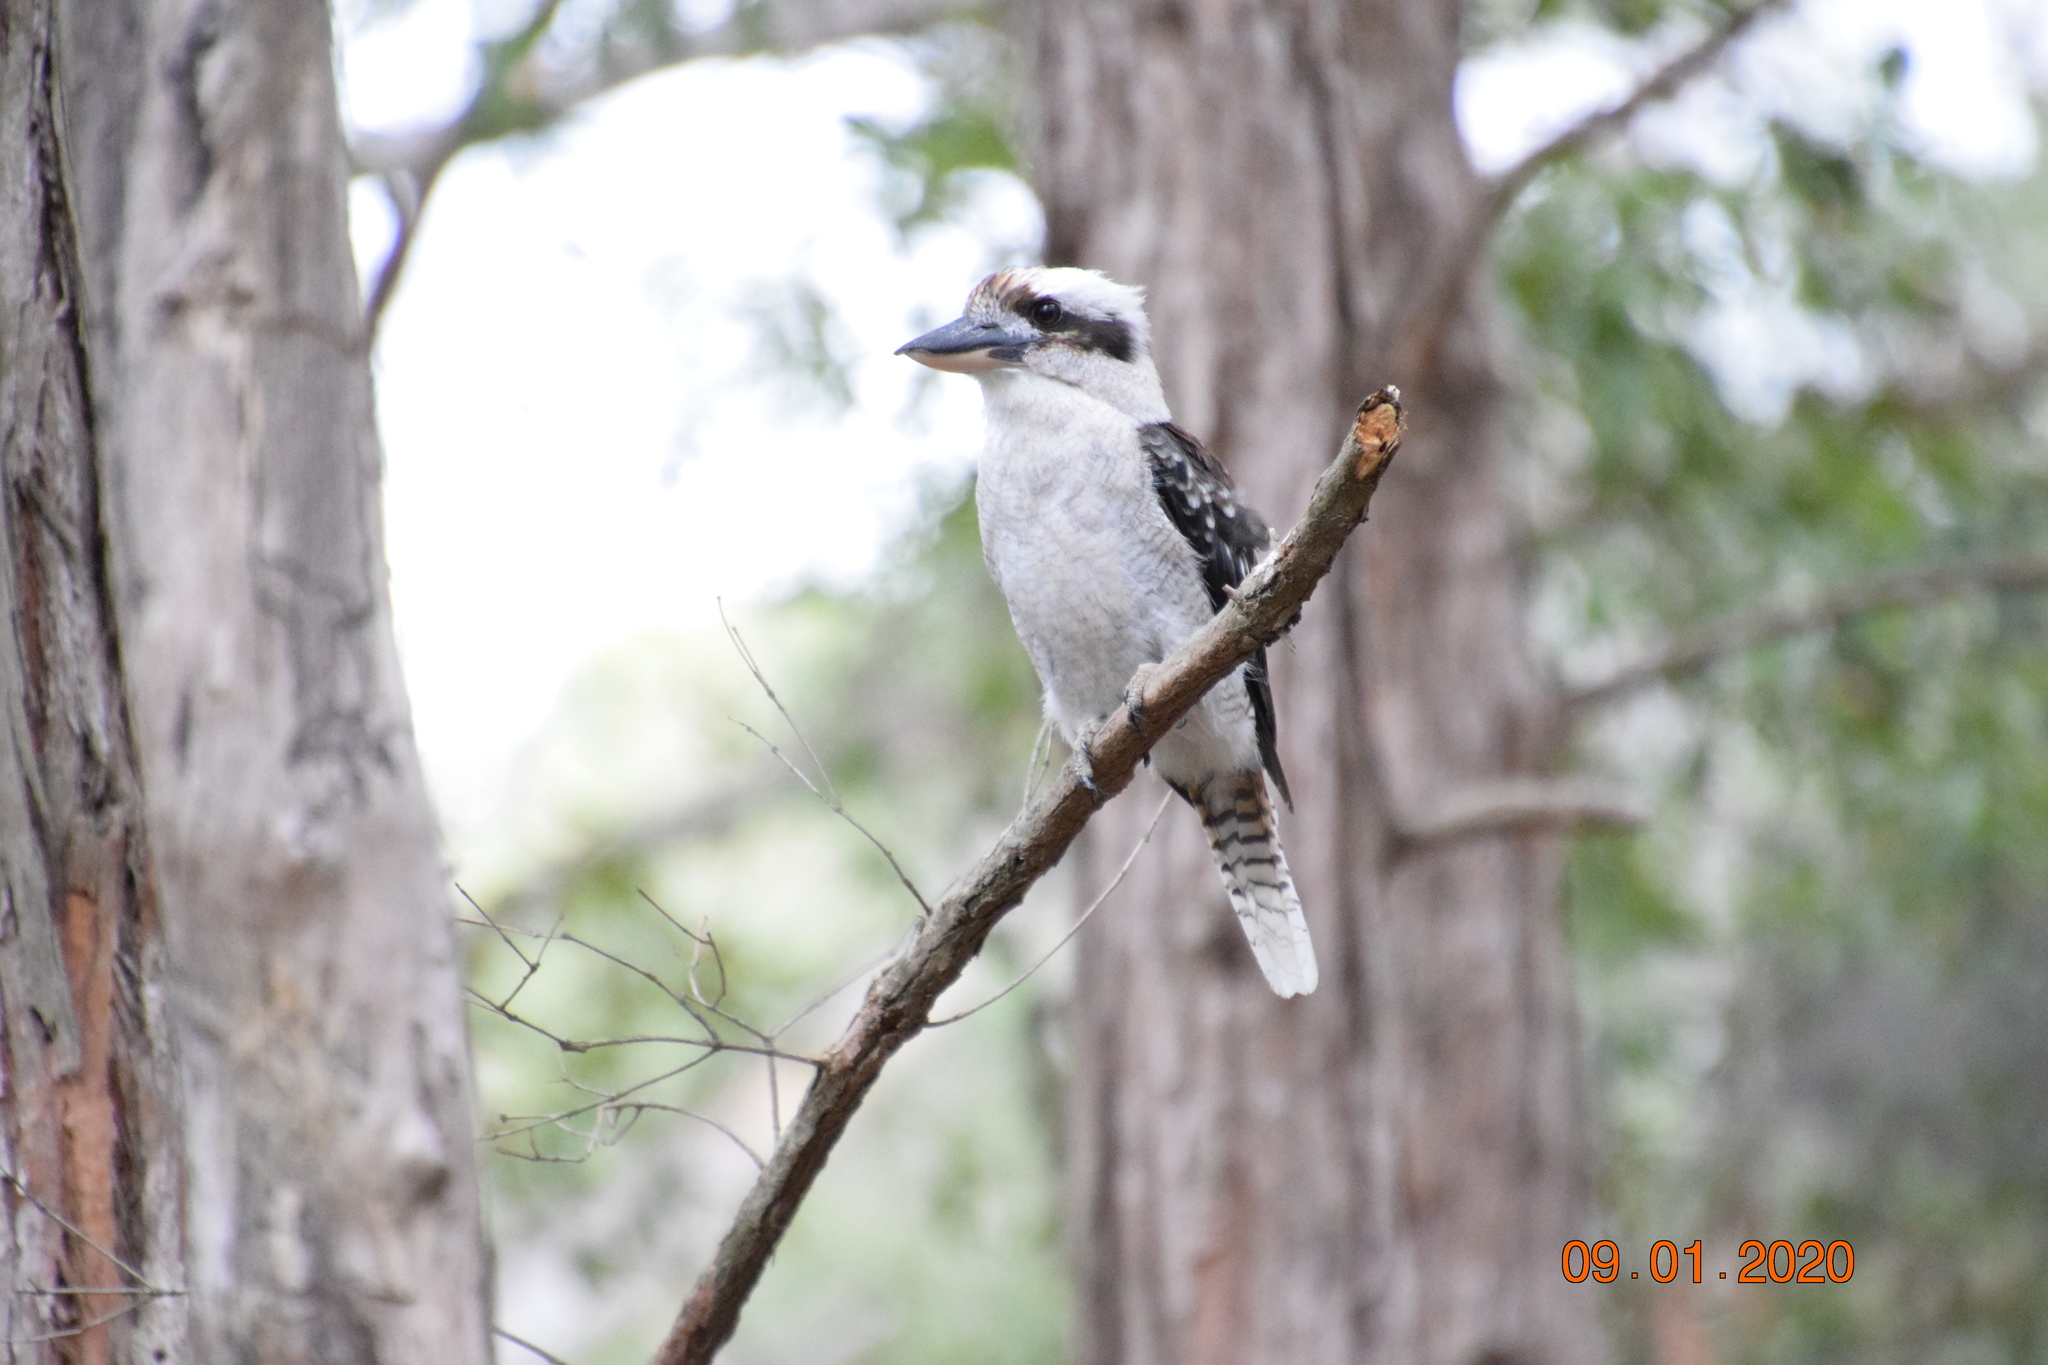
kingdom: Animalia
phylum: Chordata
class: Aves
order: Coraciiformes
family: Alcedinidae
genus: Dacelo
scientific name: Dacelo novaeguineae
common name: Laughing kookaburra
